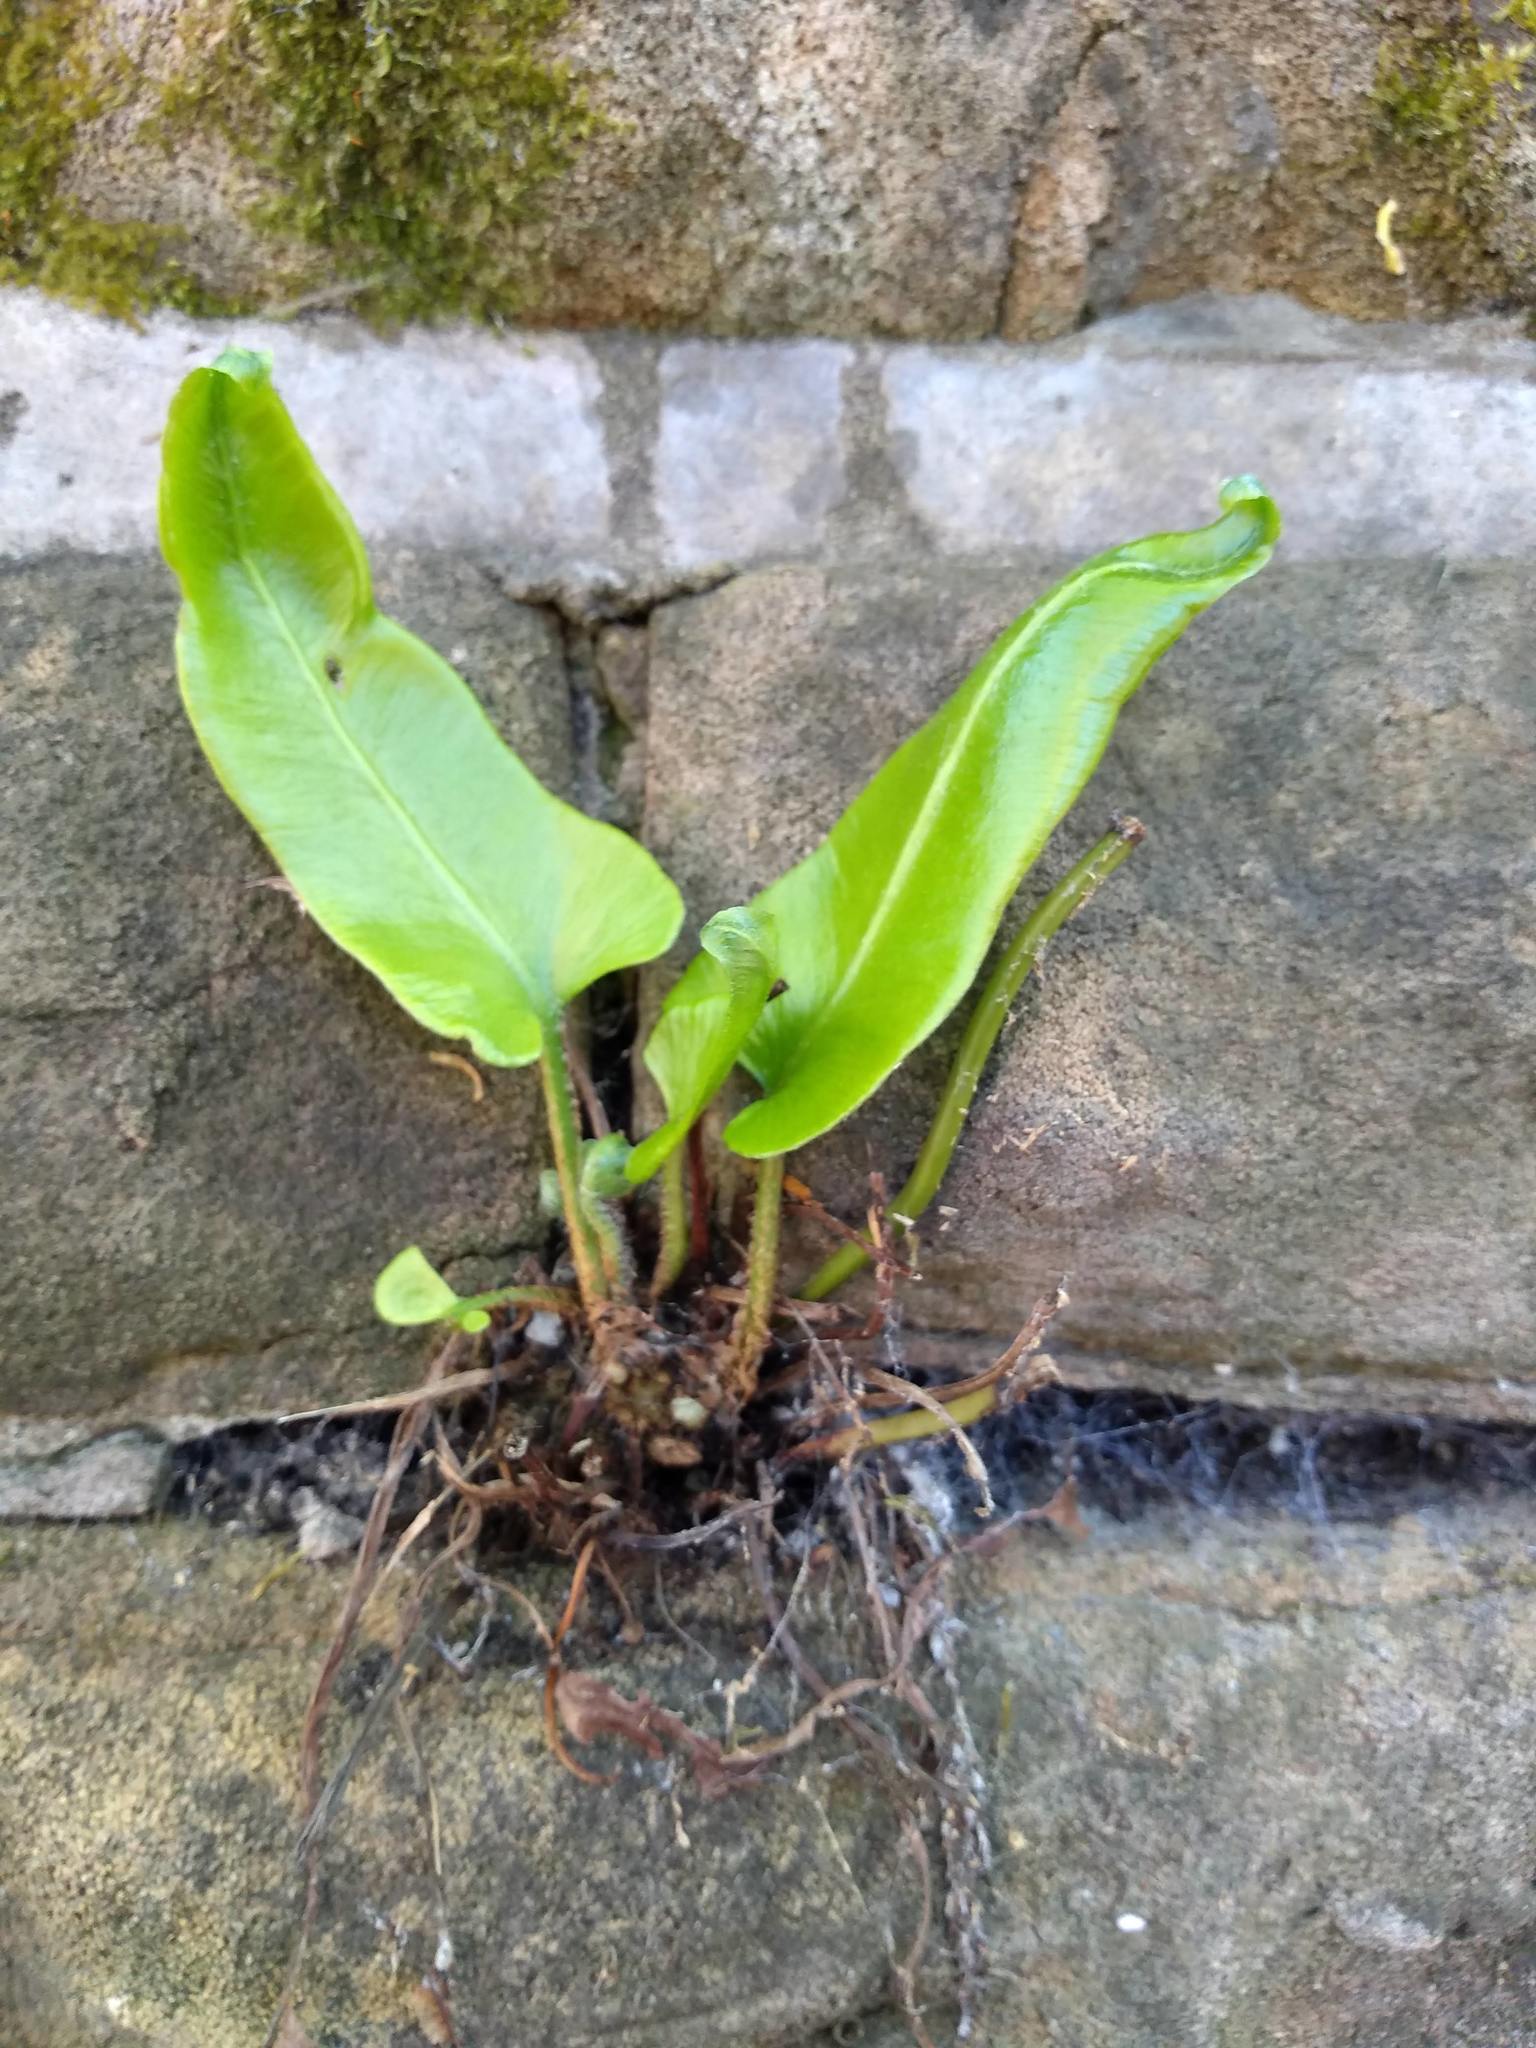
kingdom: Plantae
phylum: Tracheophyta
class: Polypodiopsida
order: Polypodiales
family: Aspleniaceae
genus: Asplenium
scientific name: Asplenium scolopendrium
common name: Hart's-tongue fern
